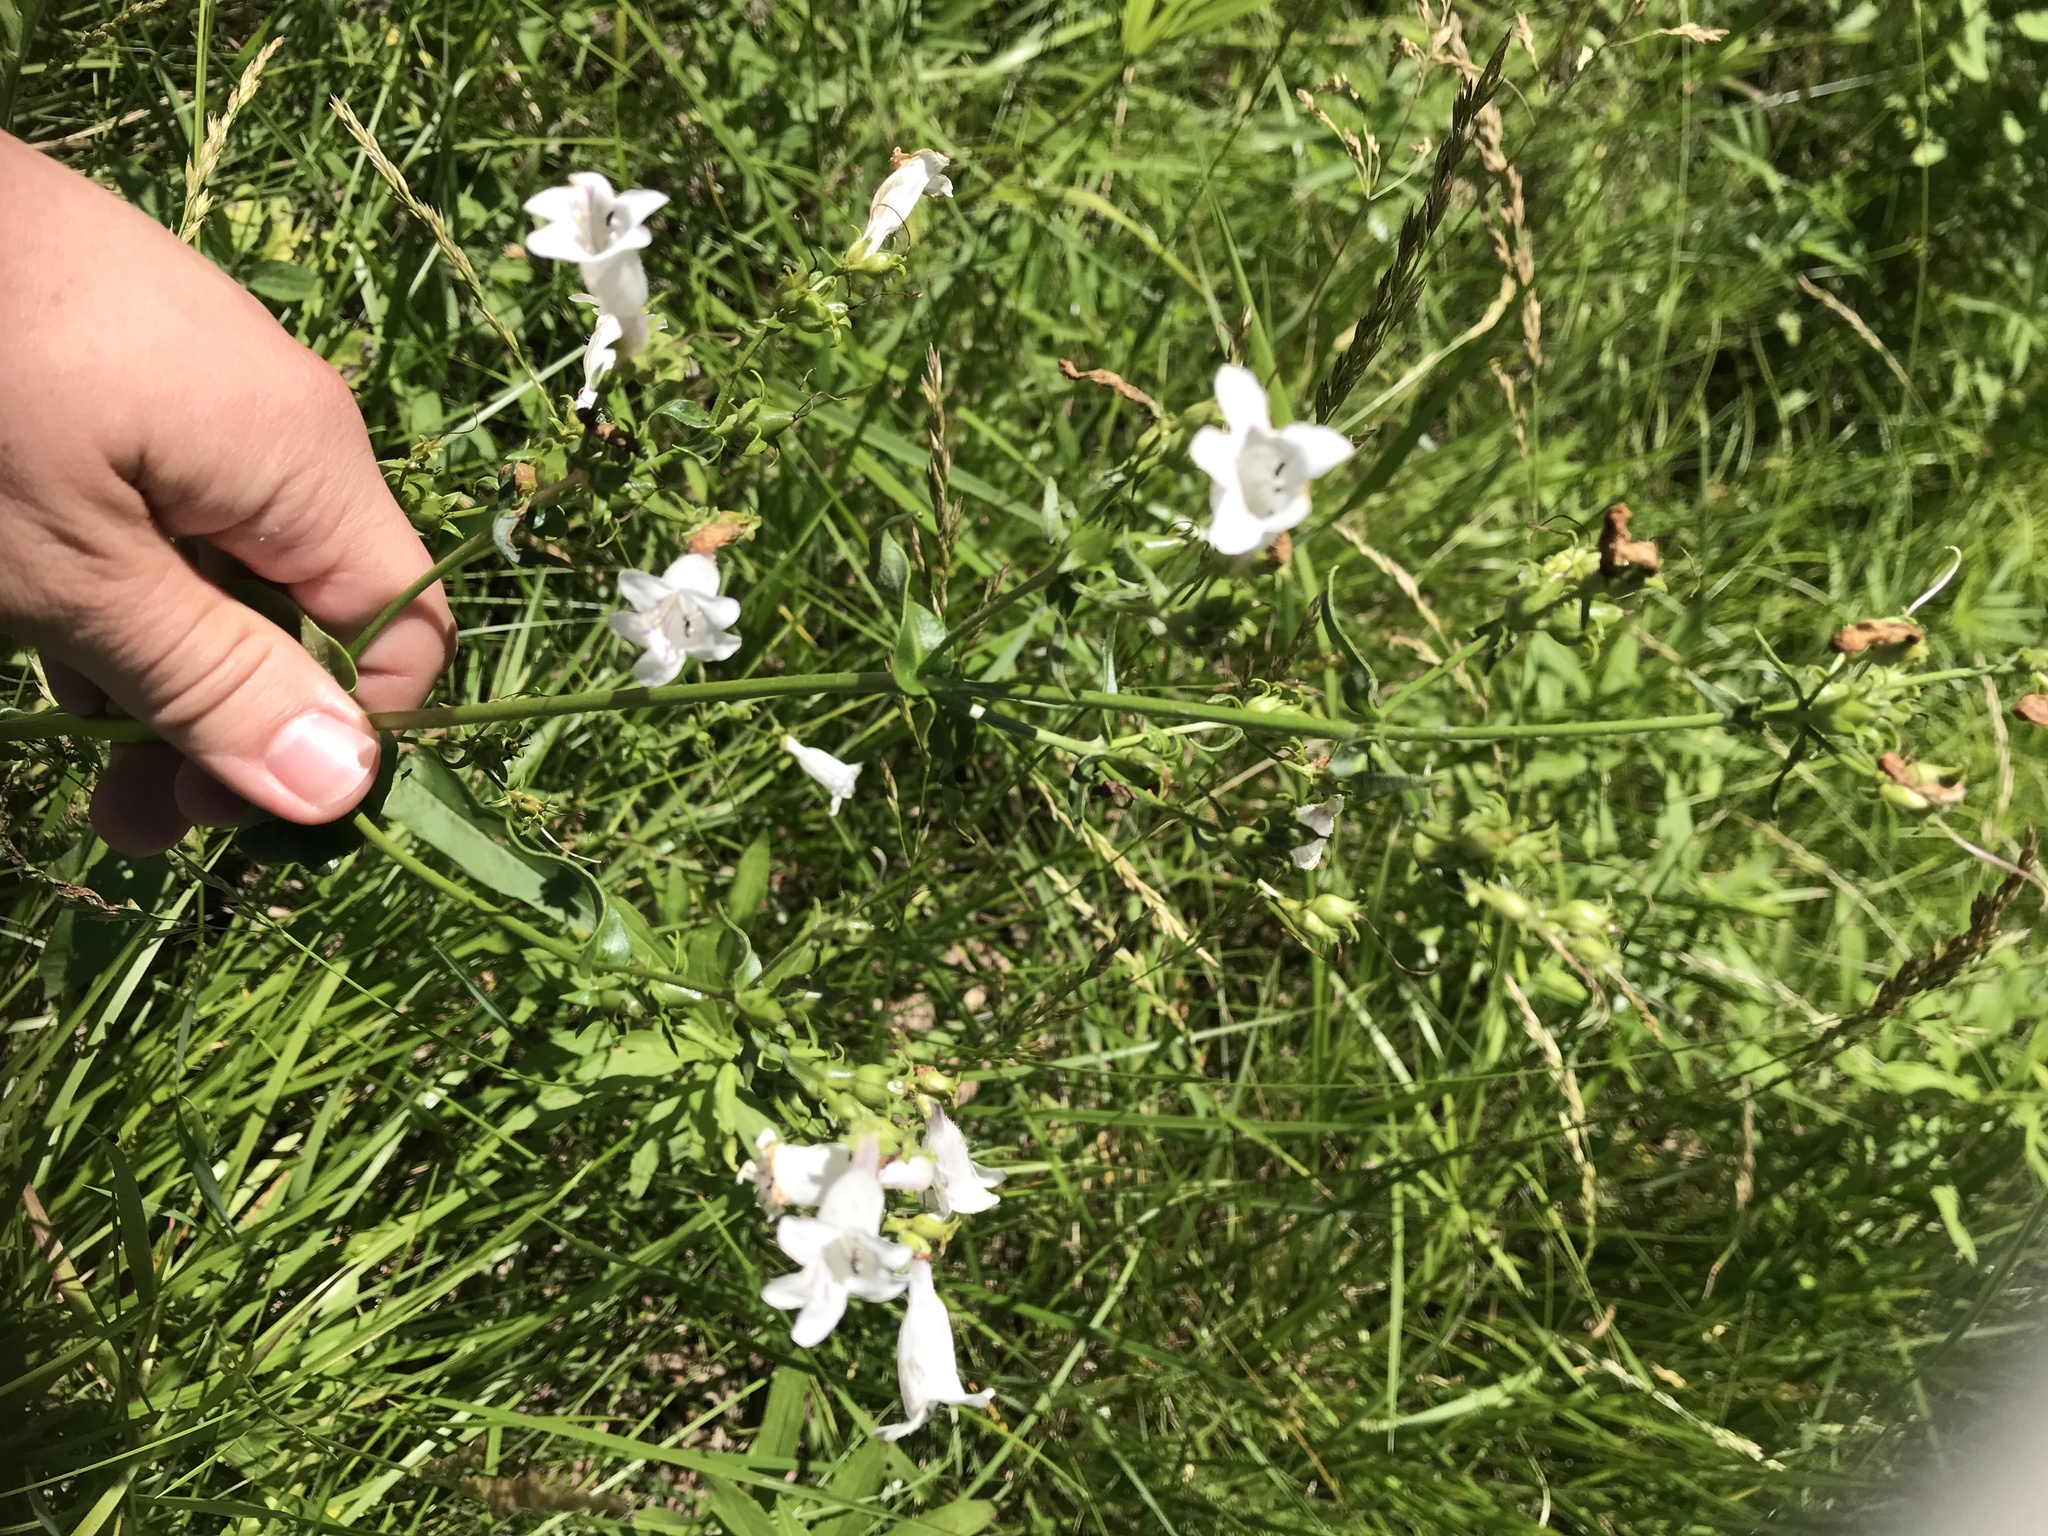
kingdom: Plantae
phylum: Tracheophyta
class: Magnoliopsida
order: Lamiales
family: Plantaginaceae
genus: Penstemon
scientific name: Penstemon digitalis
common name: Foxglove beardtongue
